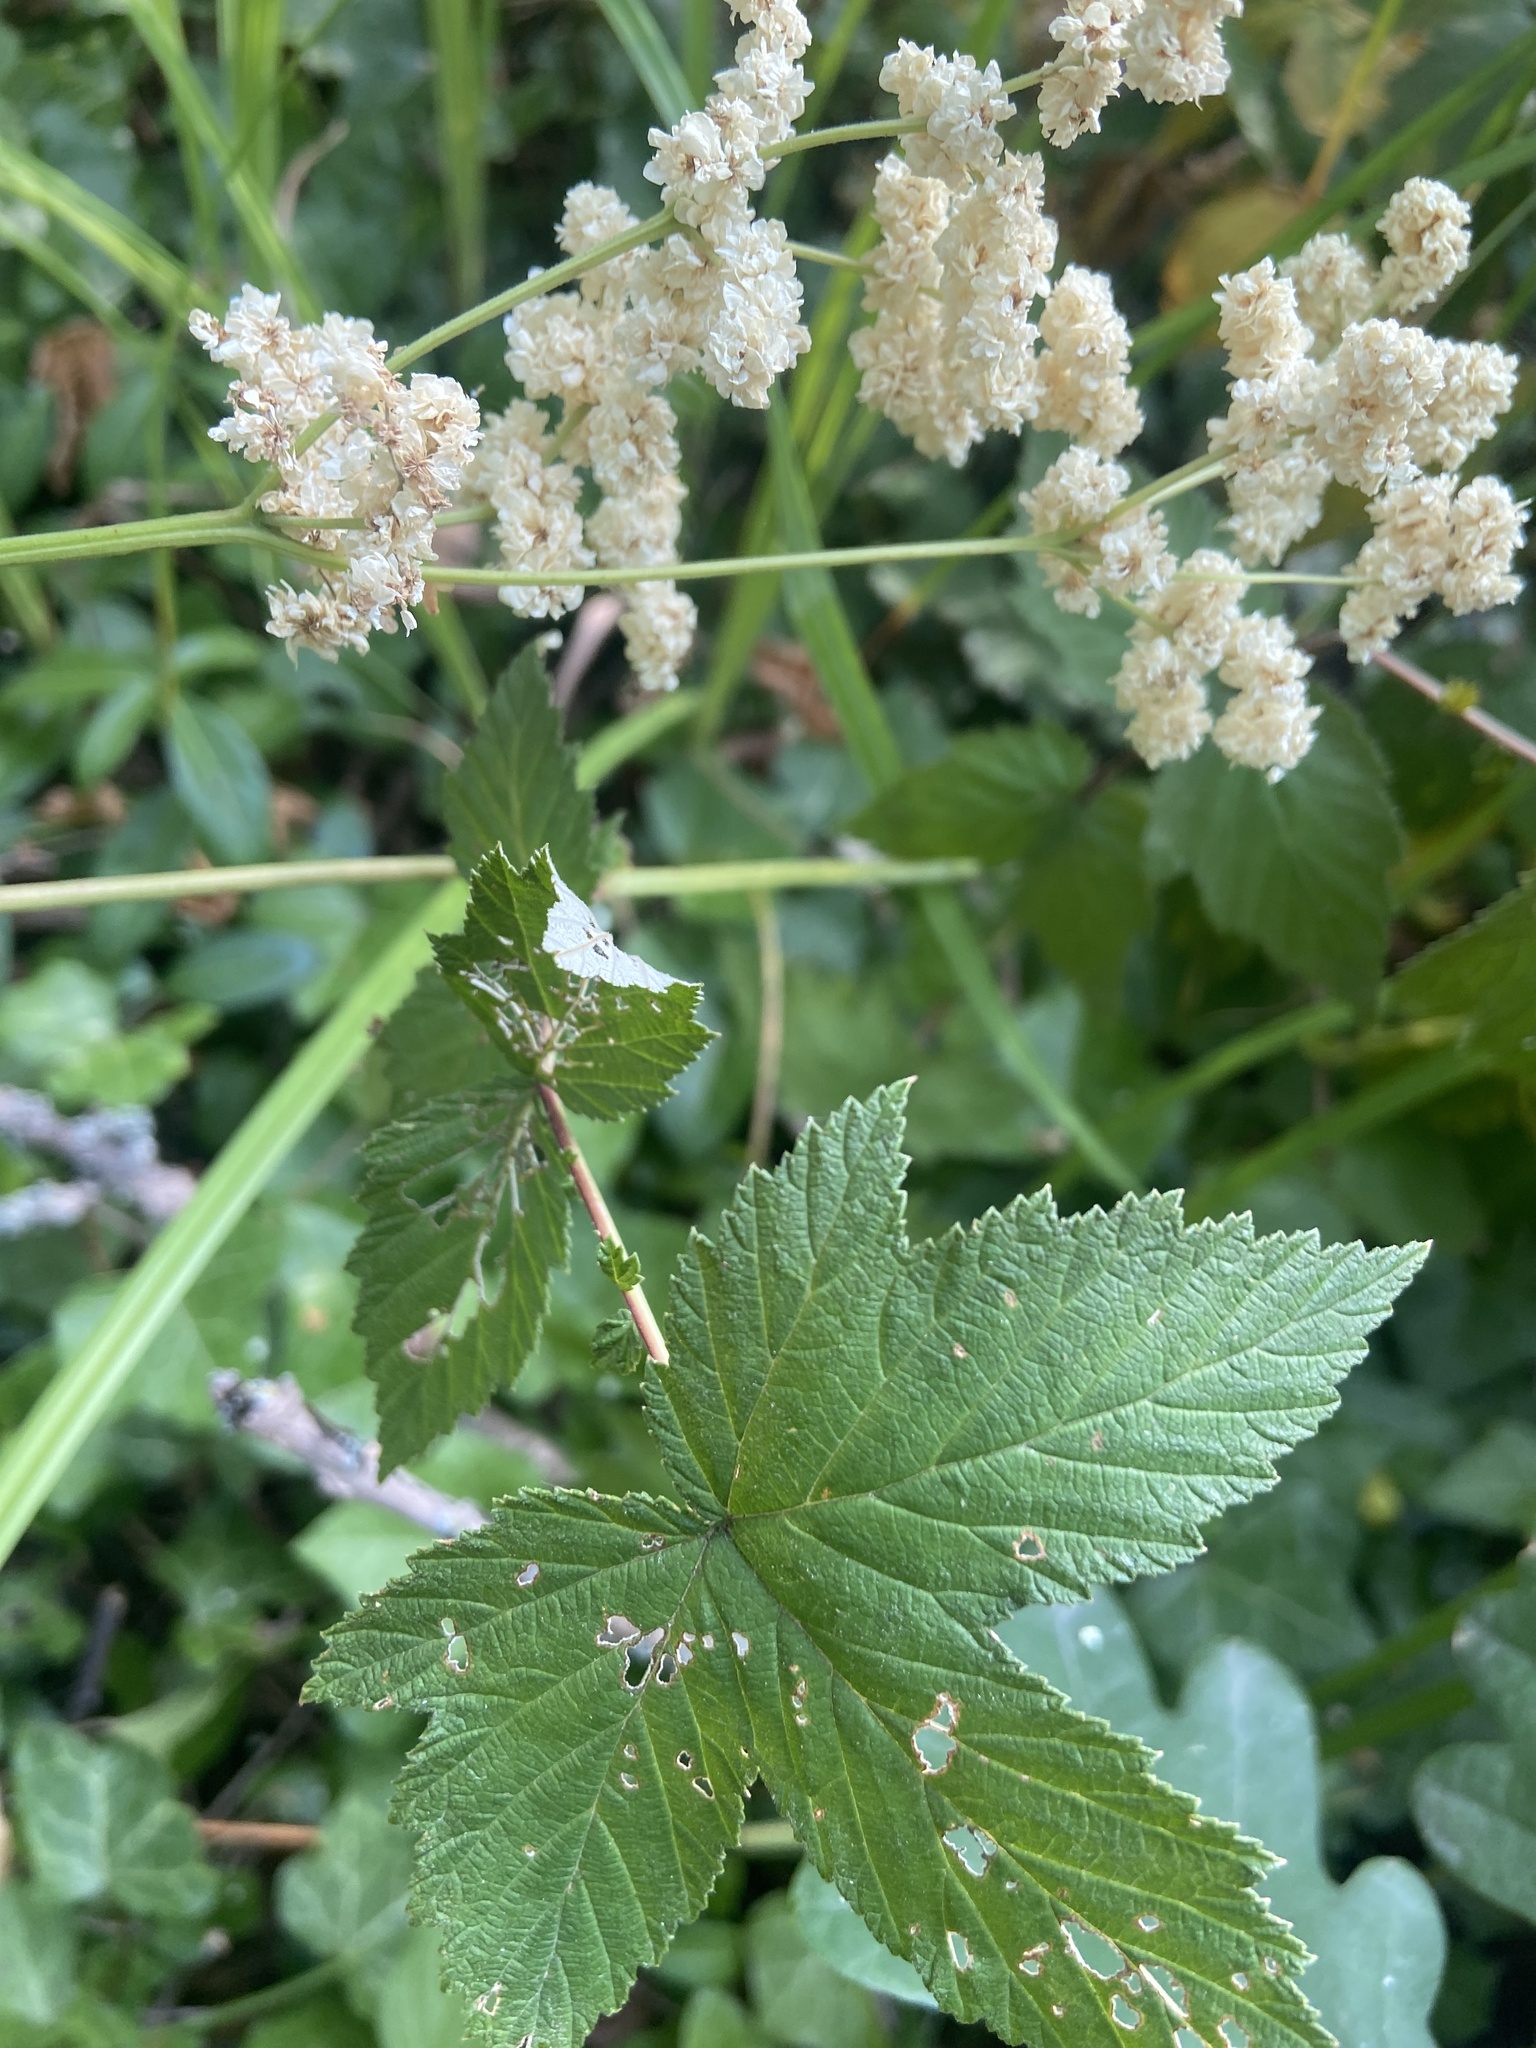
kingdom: Plantae
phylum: Tracheophyta
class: Magnoliopsida
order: Rosales
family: Rosaceae
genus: Filipendula
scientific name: Filipendula ulmaria
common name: Meadowsweet
